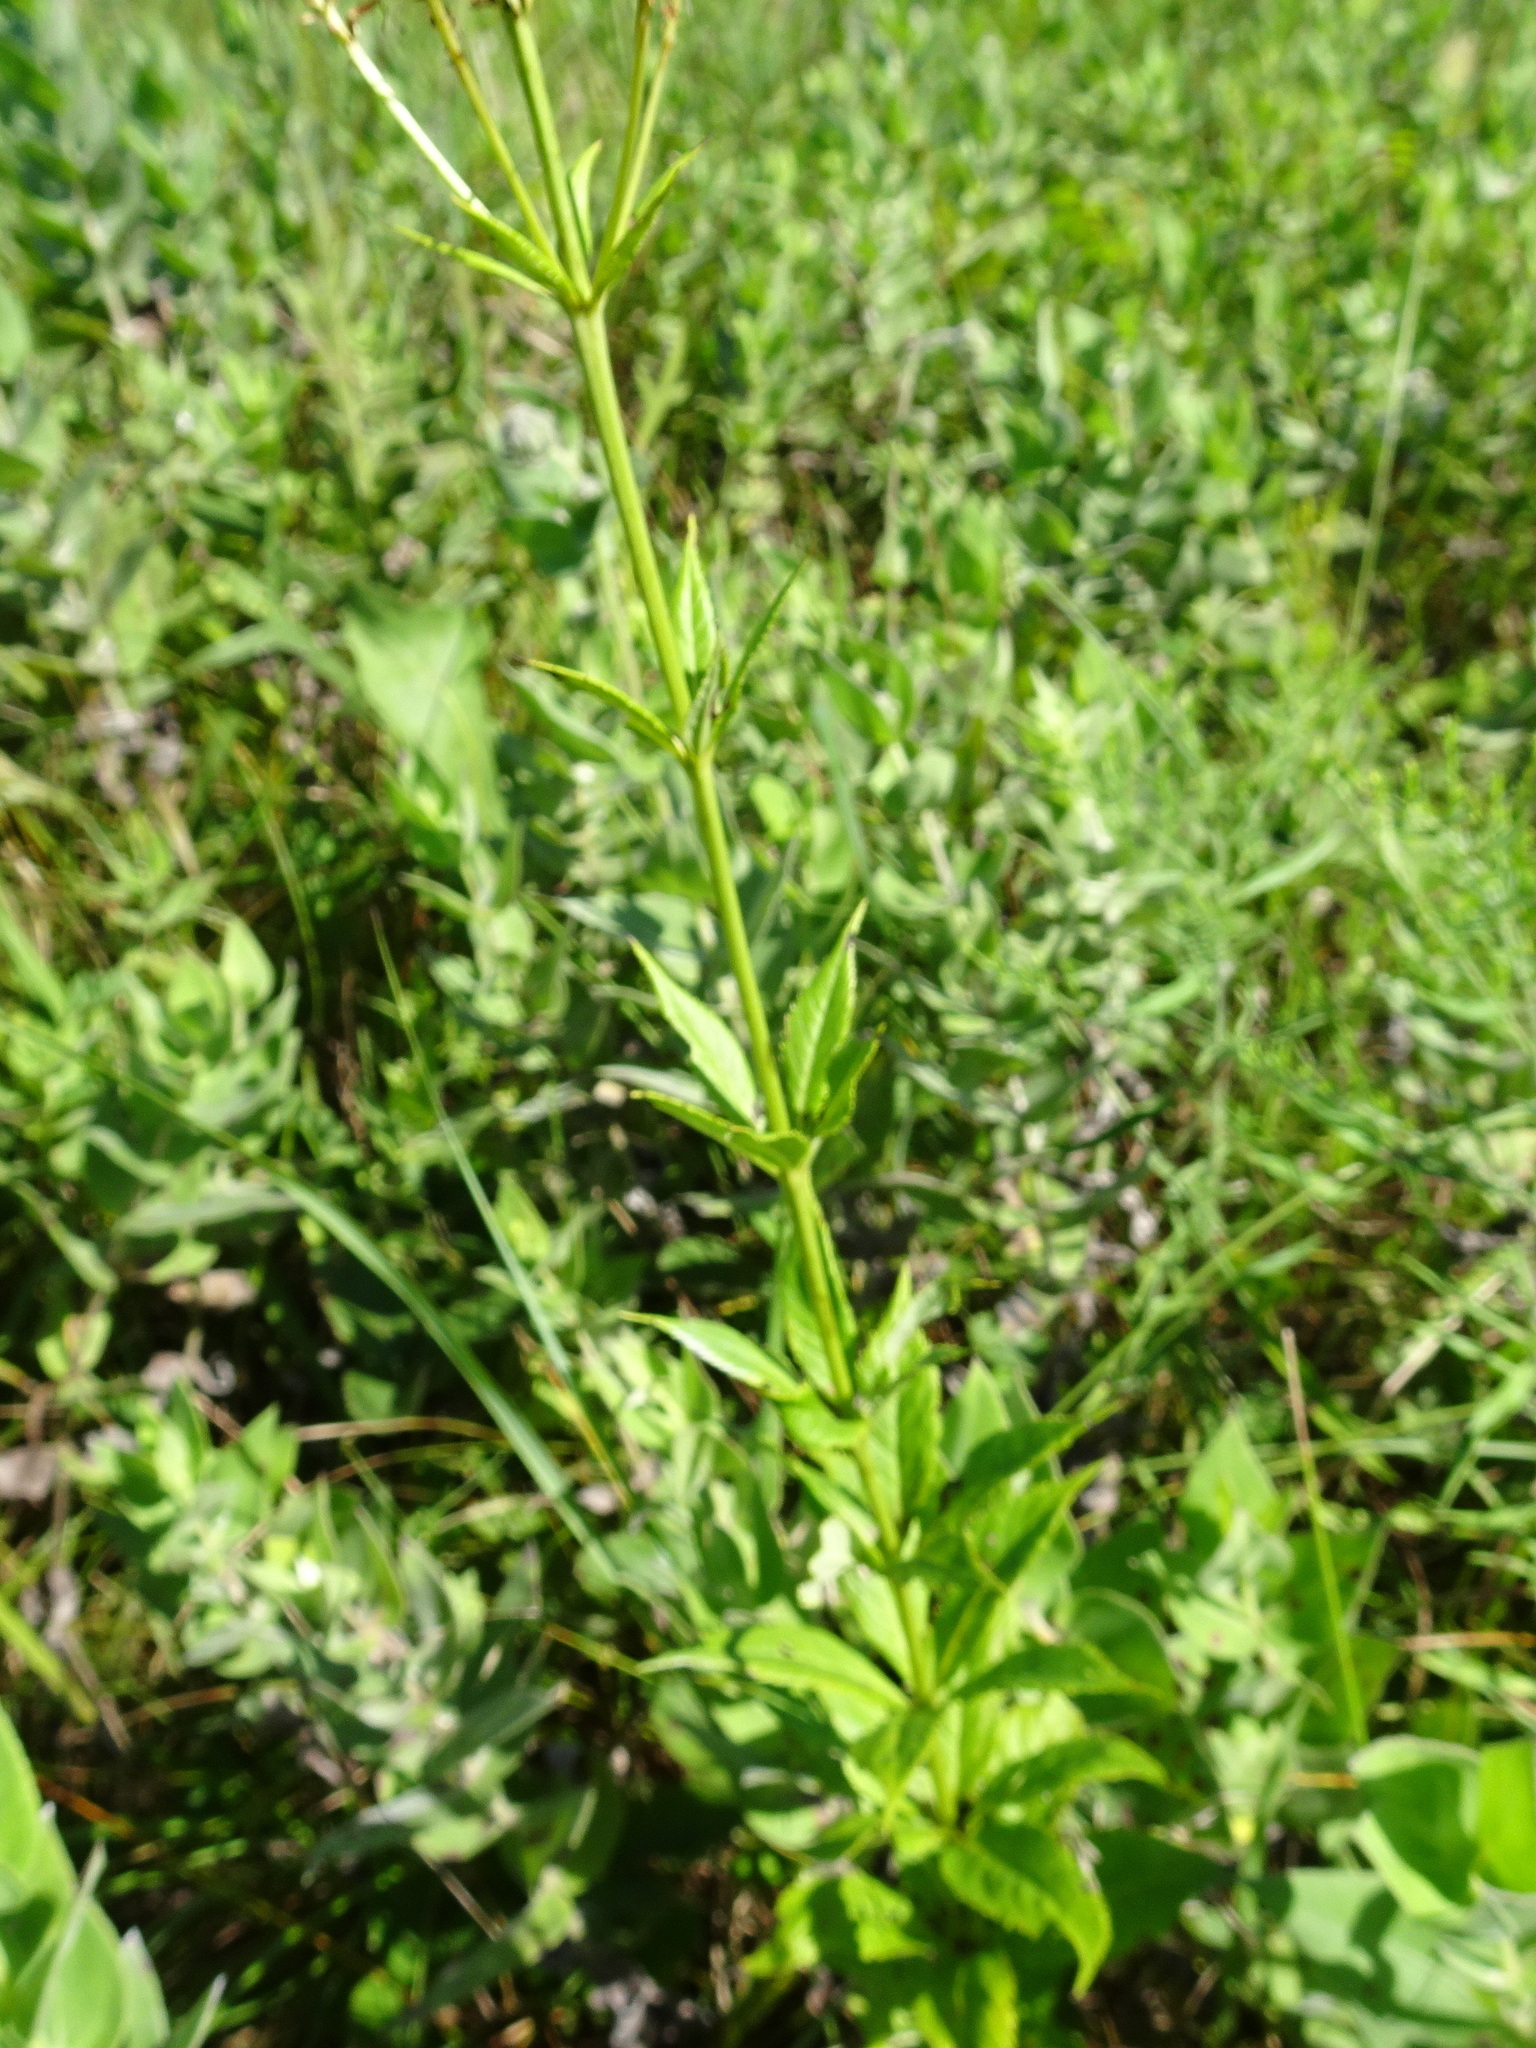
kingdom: Plantae
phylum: Tracheophyta
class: Magnoliopsida
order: Lamiales
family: Plantaginaceae
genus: Veronicastrum
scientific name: Veronicastrum virginicum
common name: Blackroot
